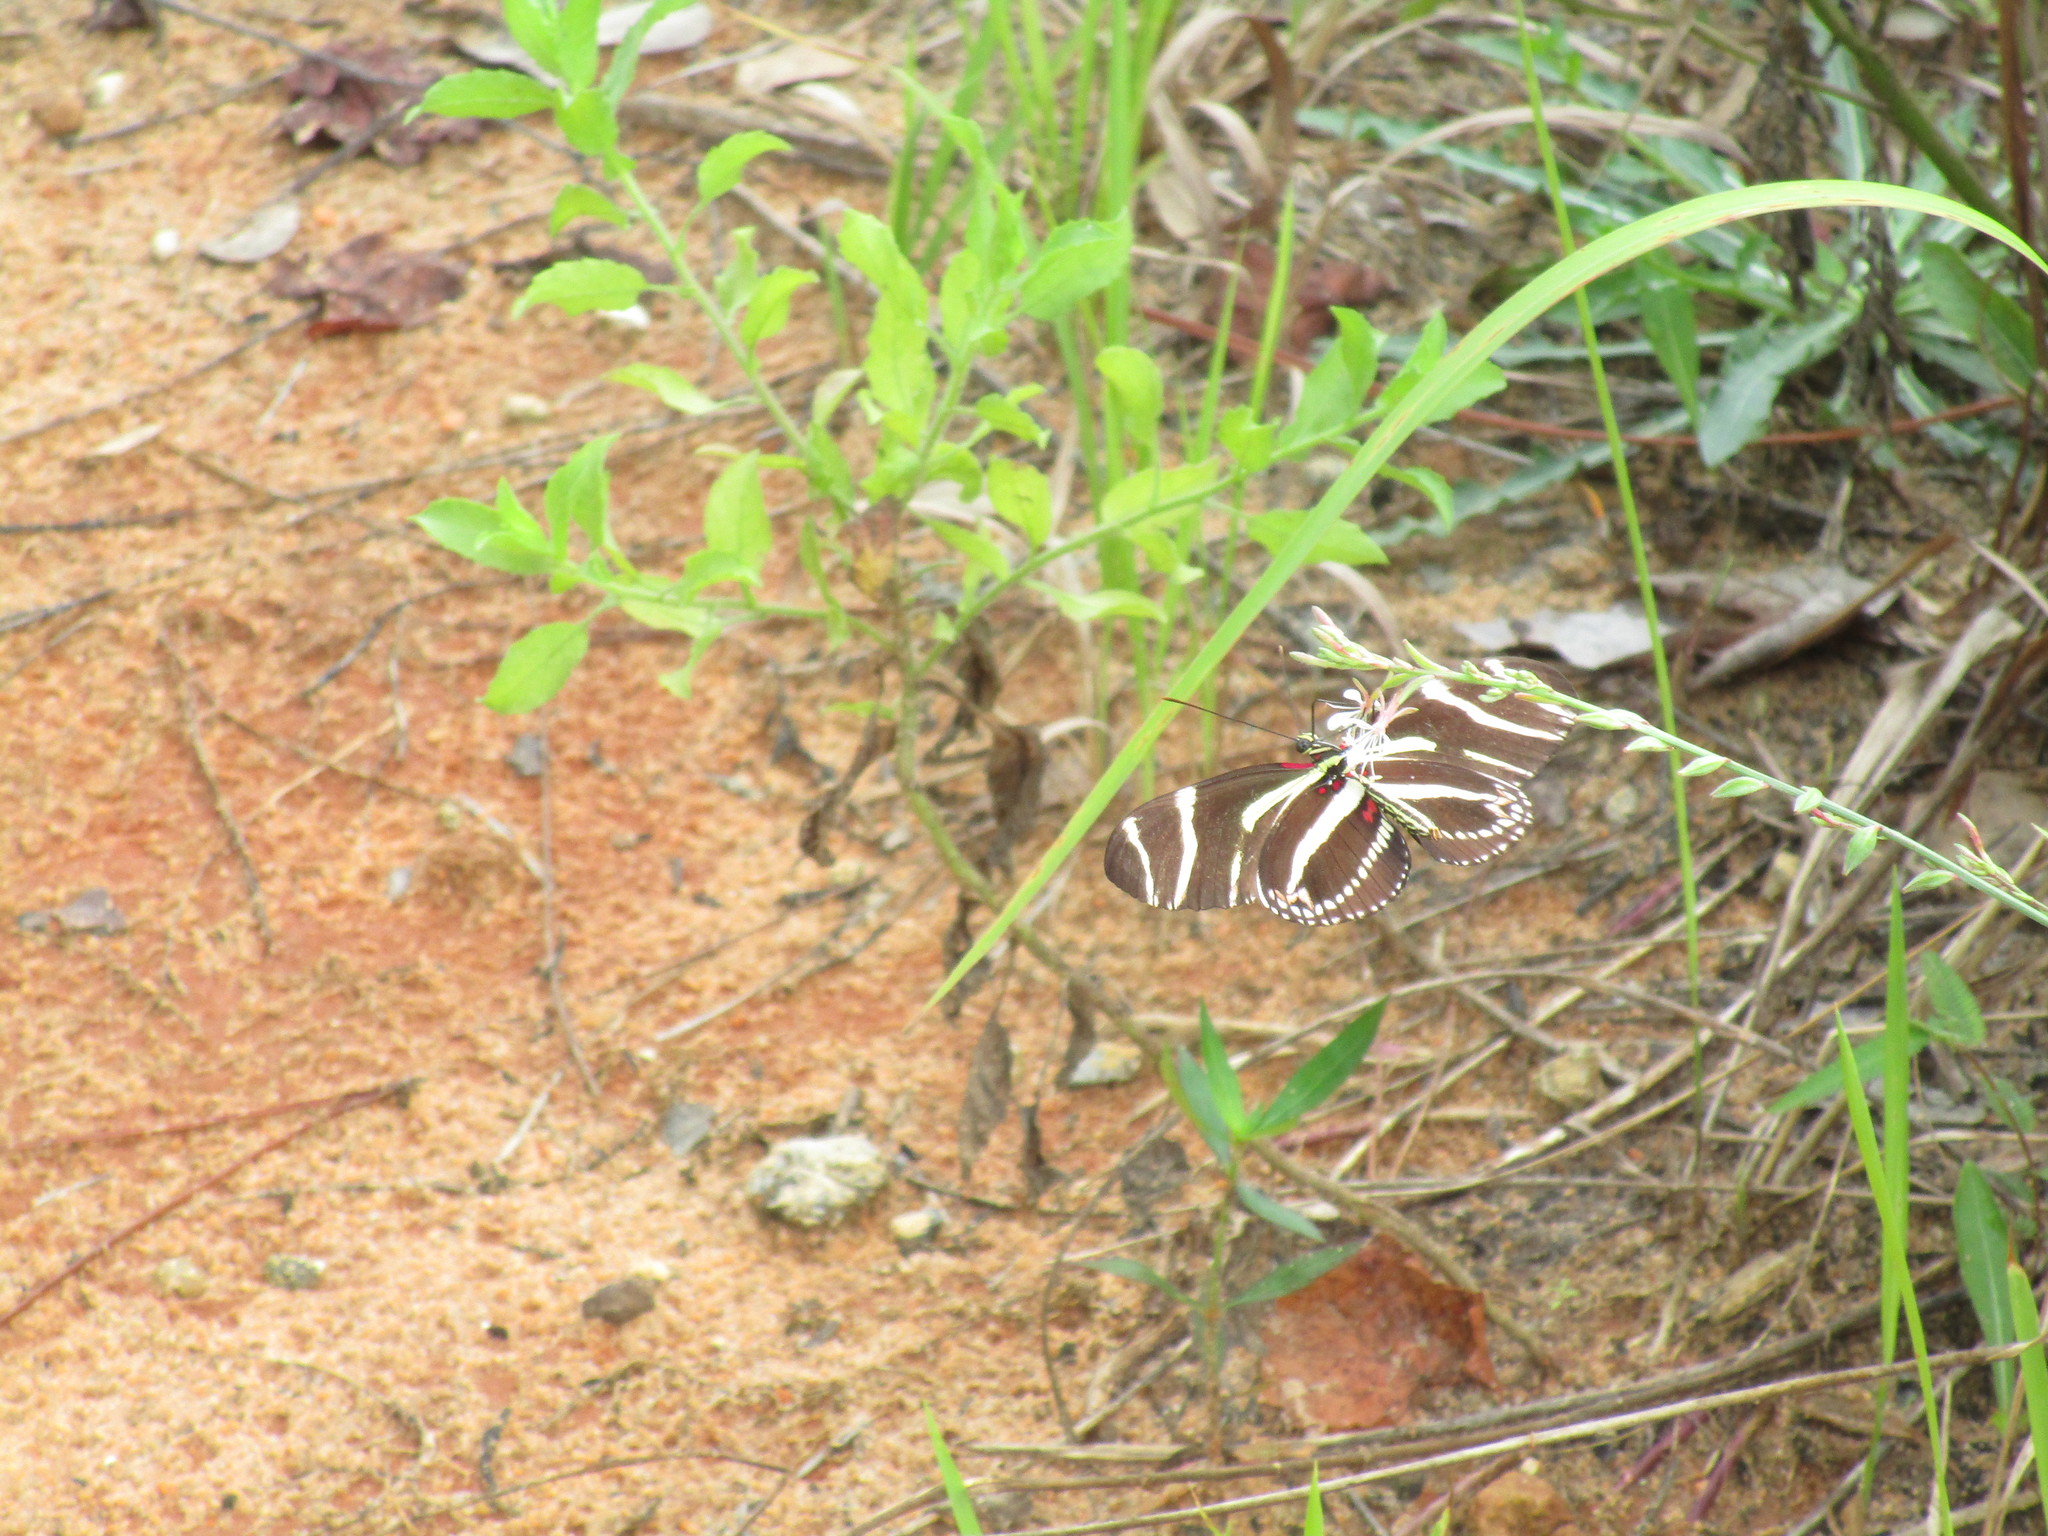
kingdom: Animalia
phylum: Arthropoda
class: Insecta
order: Lepidoptera
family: Nymphalidae
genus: Heliconius
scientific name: Heliconius charithonia
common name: Zebra long wing
